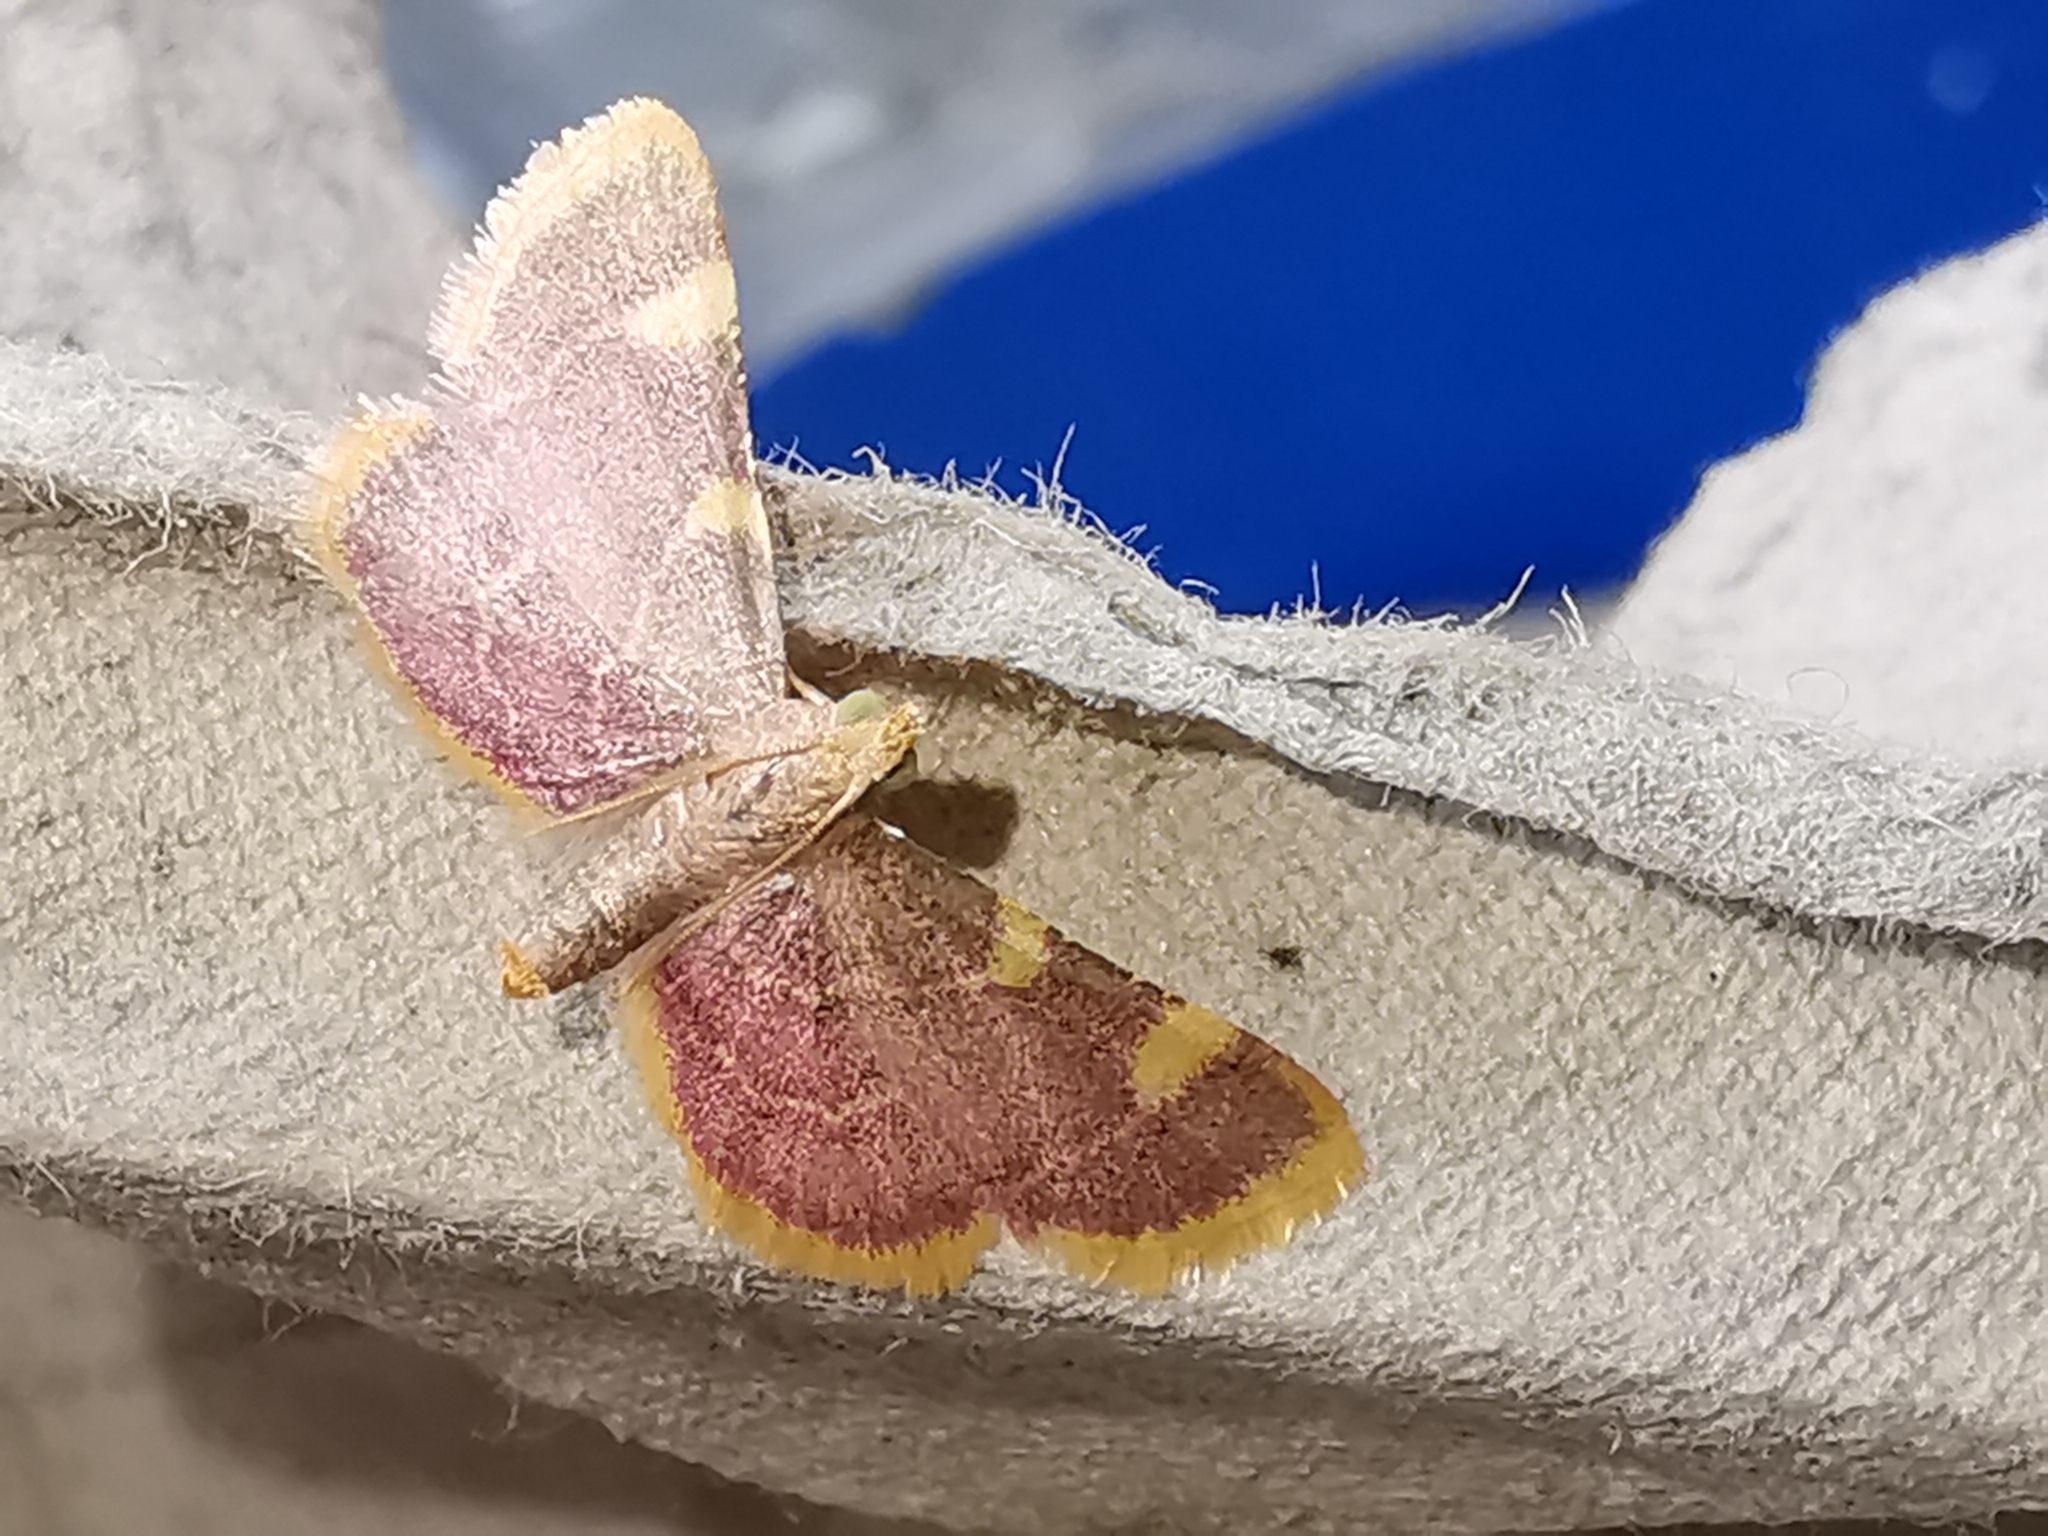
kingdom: Animalia
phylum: Arthropoda
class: Insecta
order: Lepidoptera
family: Pyralidae
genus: Hypsopygia
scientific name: Hypsopygia costalis
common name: Gold triangle
